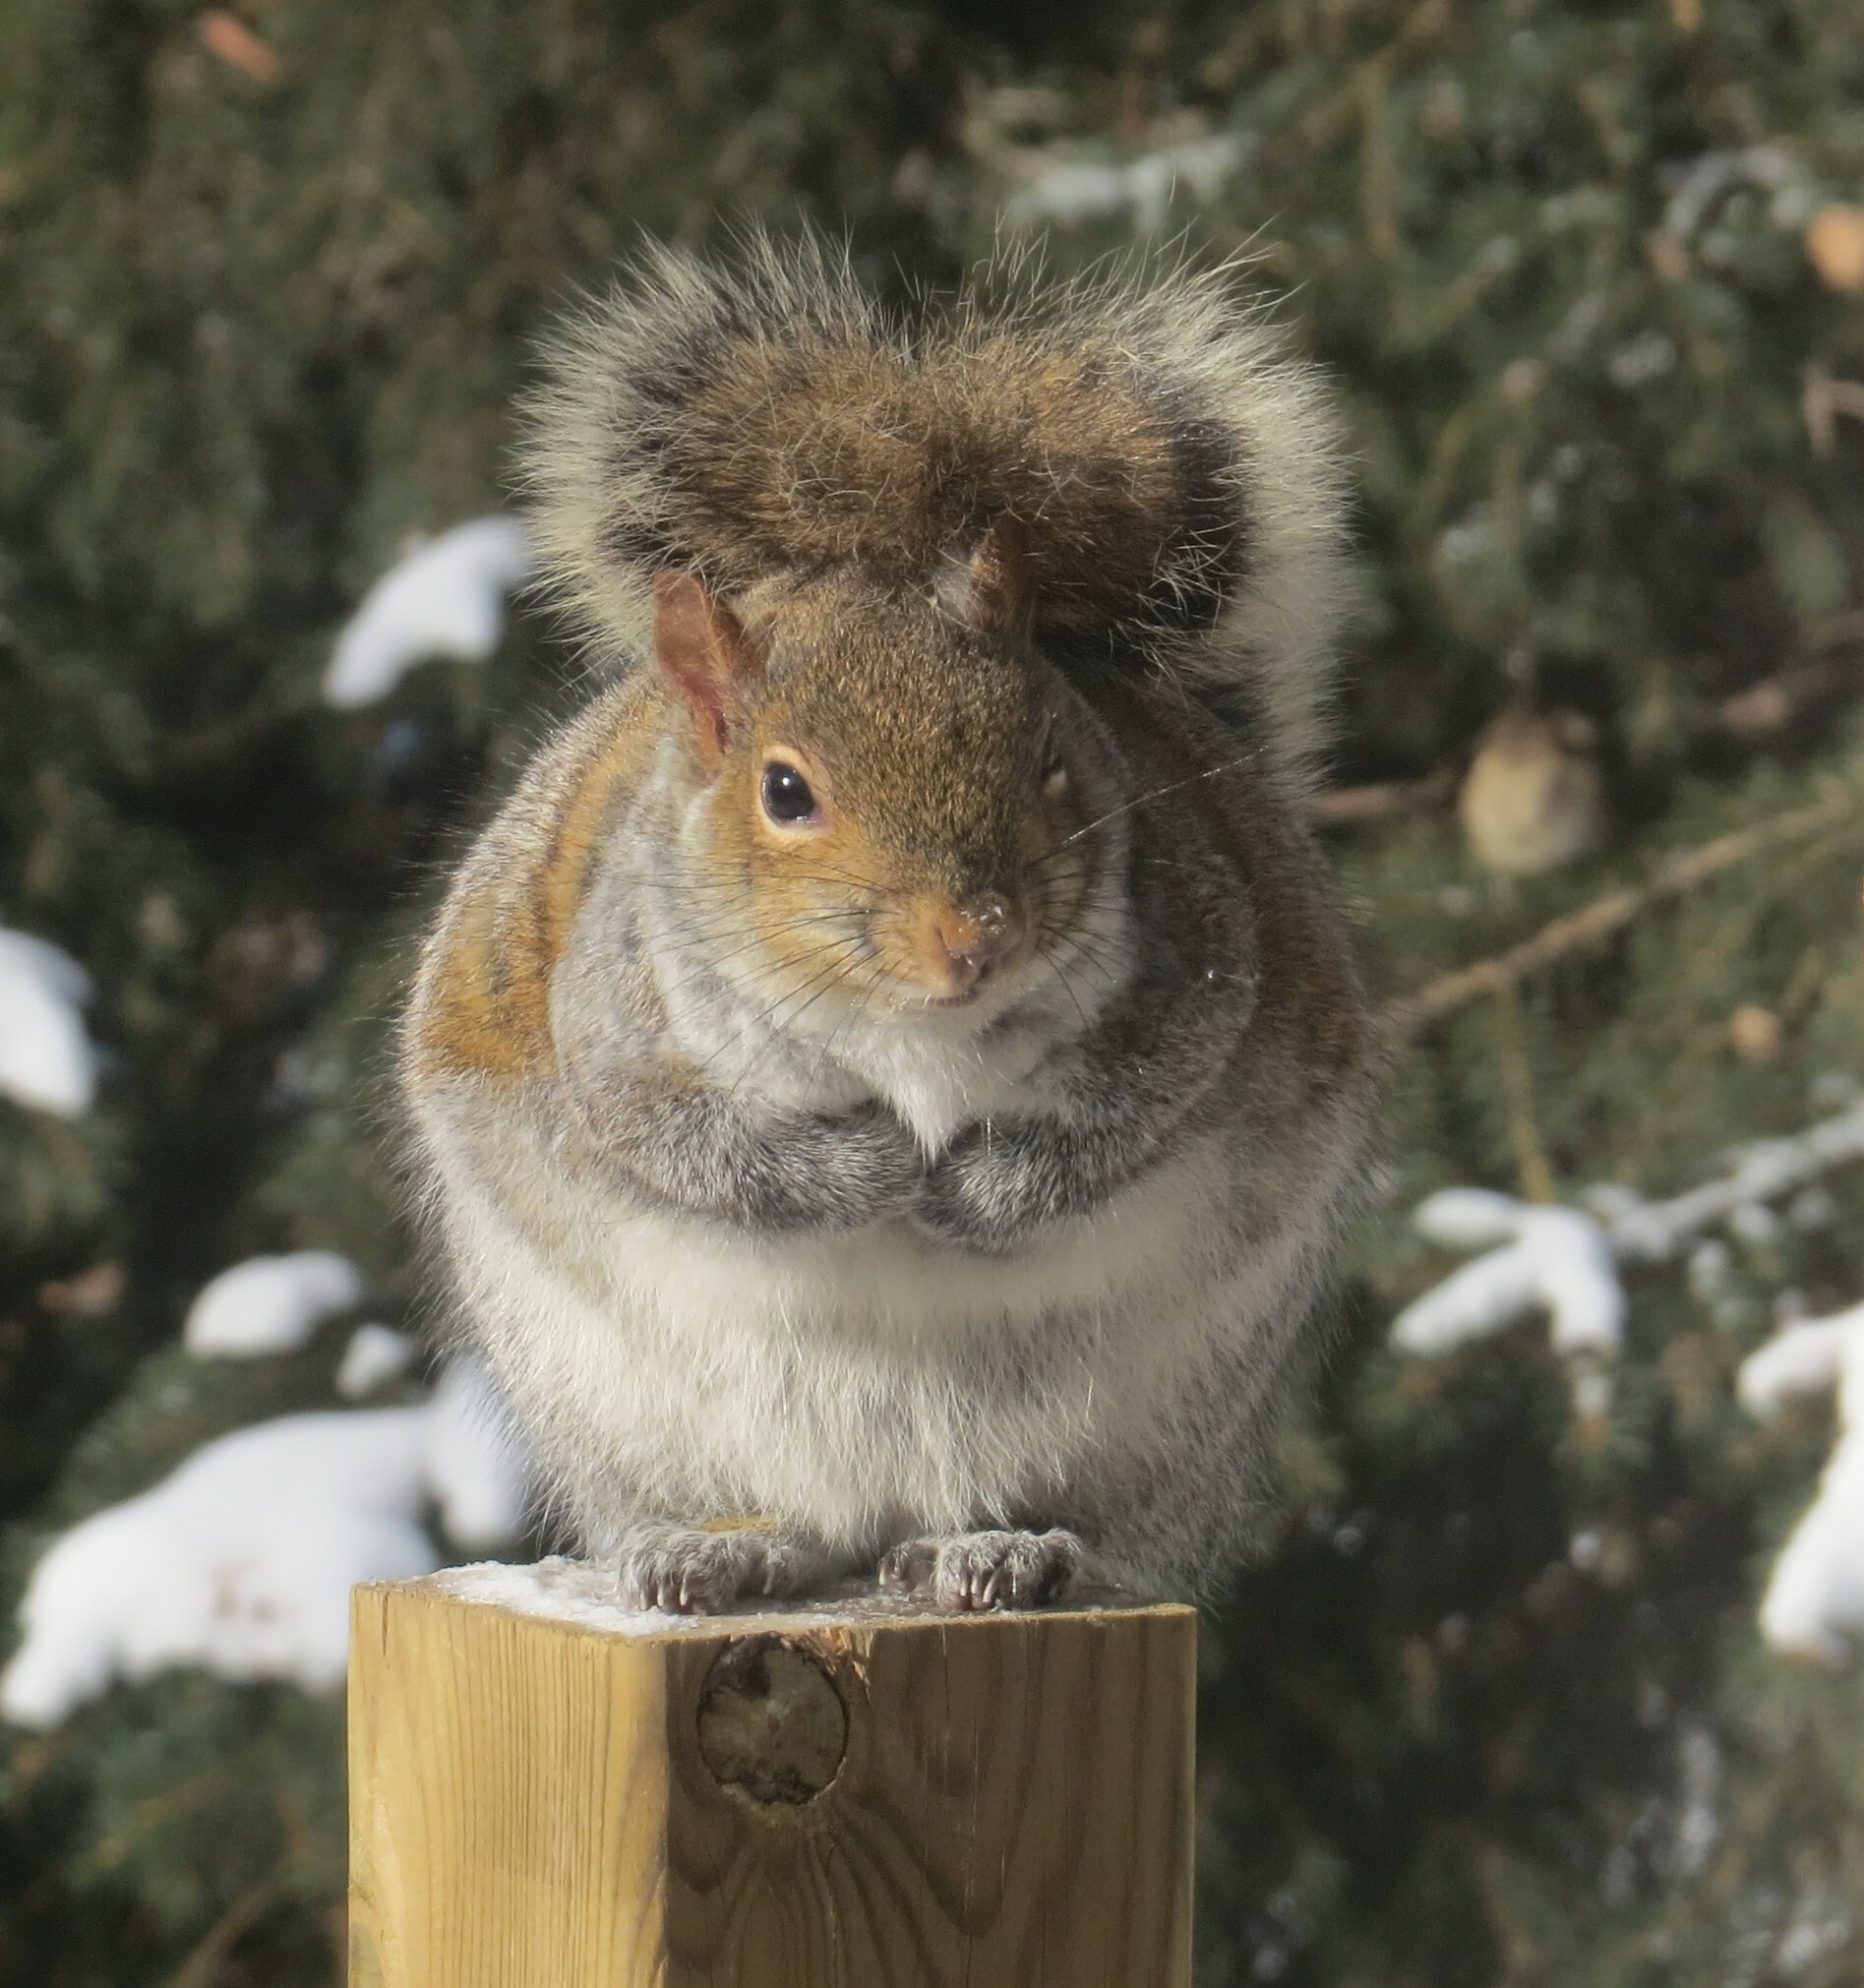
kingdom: Animalia
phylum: Chordata
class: Mammalia
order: Rodentia
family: Sciuridae
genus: Sciurus
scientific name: Sciurus carolinensis
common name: Eastern gray squirrel
